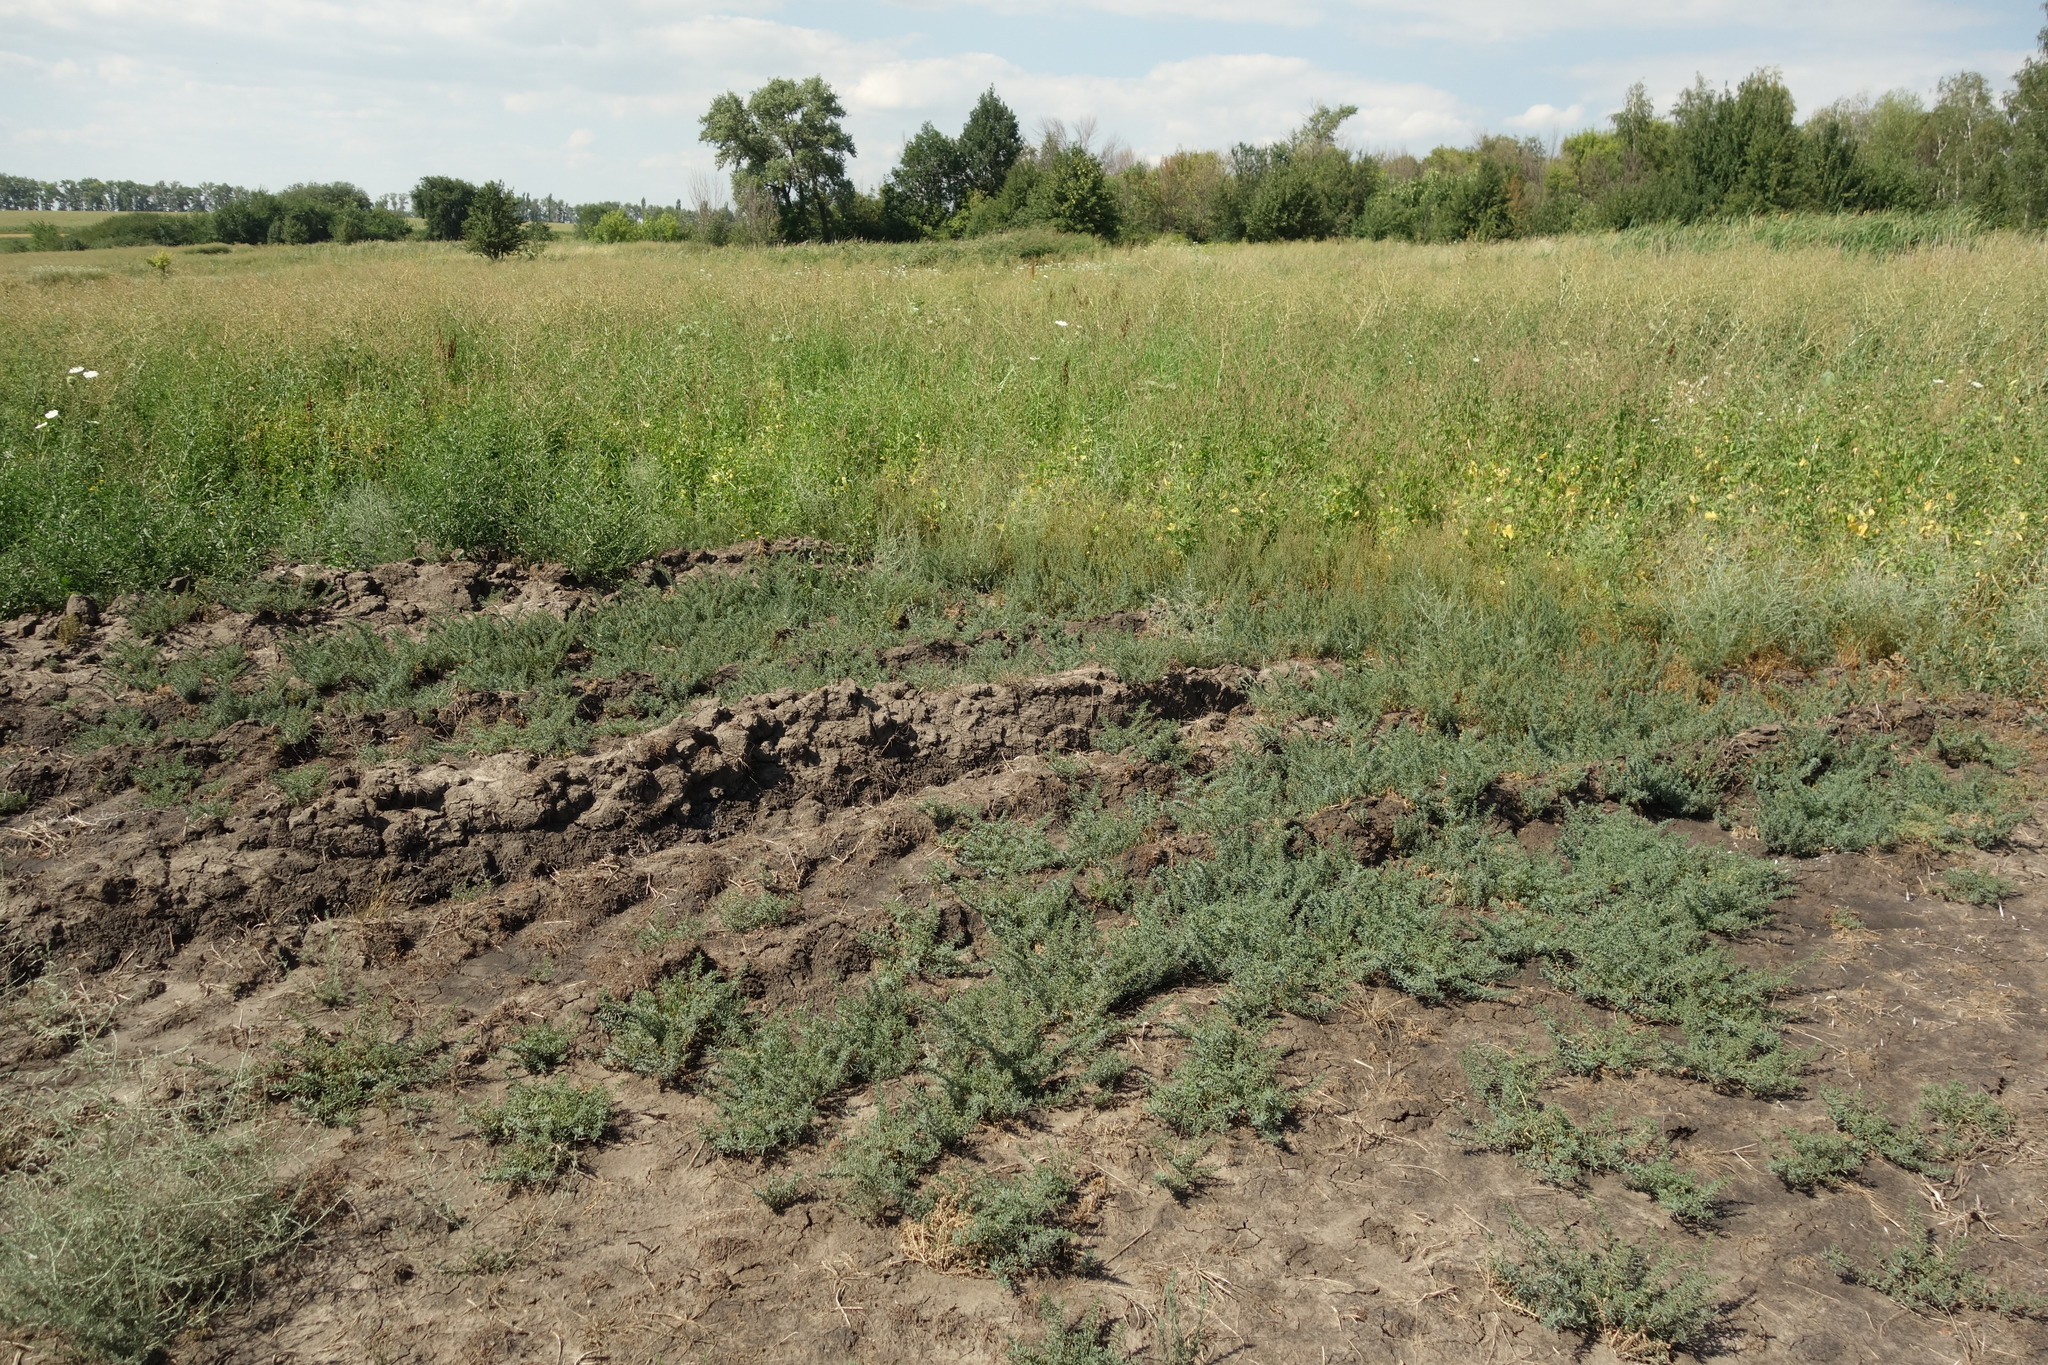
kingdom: Plantae
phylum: Tracheophyta
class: Magnoliopsida
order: Caryophyllales
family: Amaranthaceae
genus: Suaeda
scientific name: Suaeda prostrata
